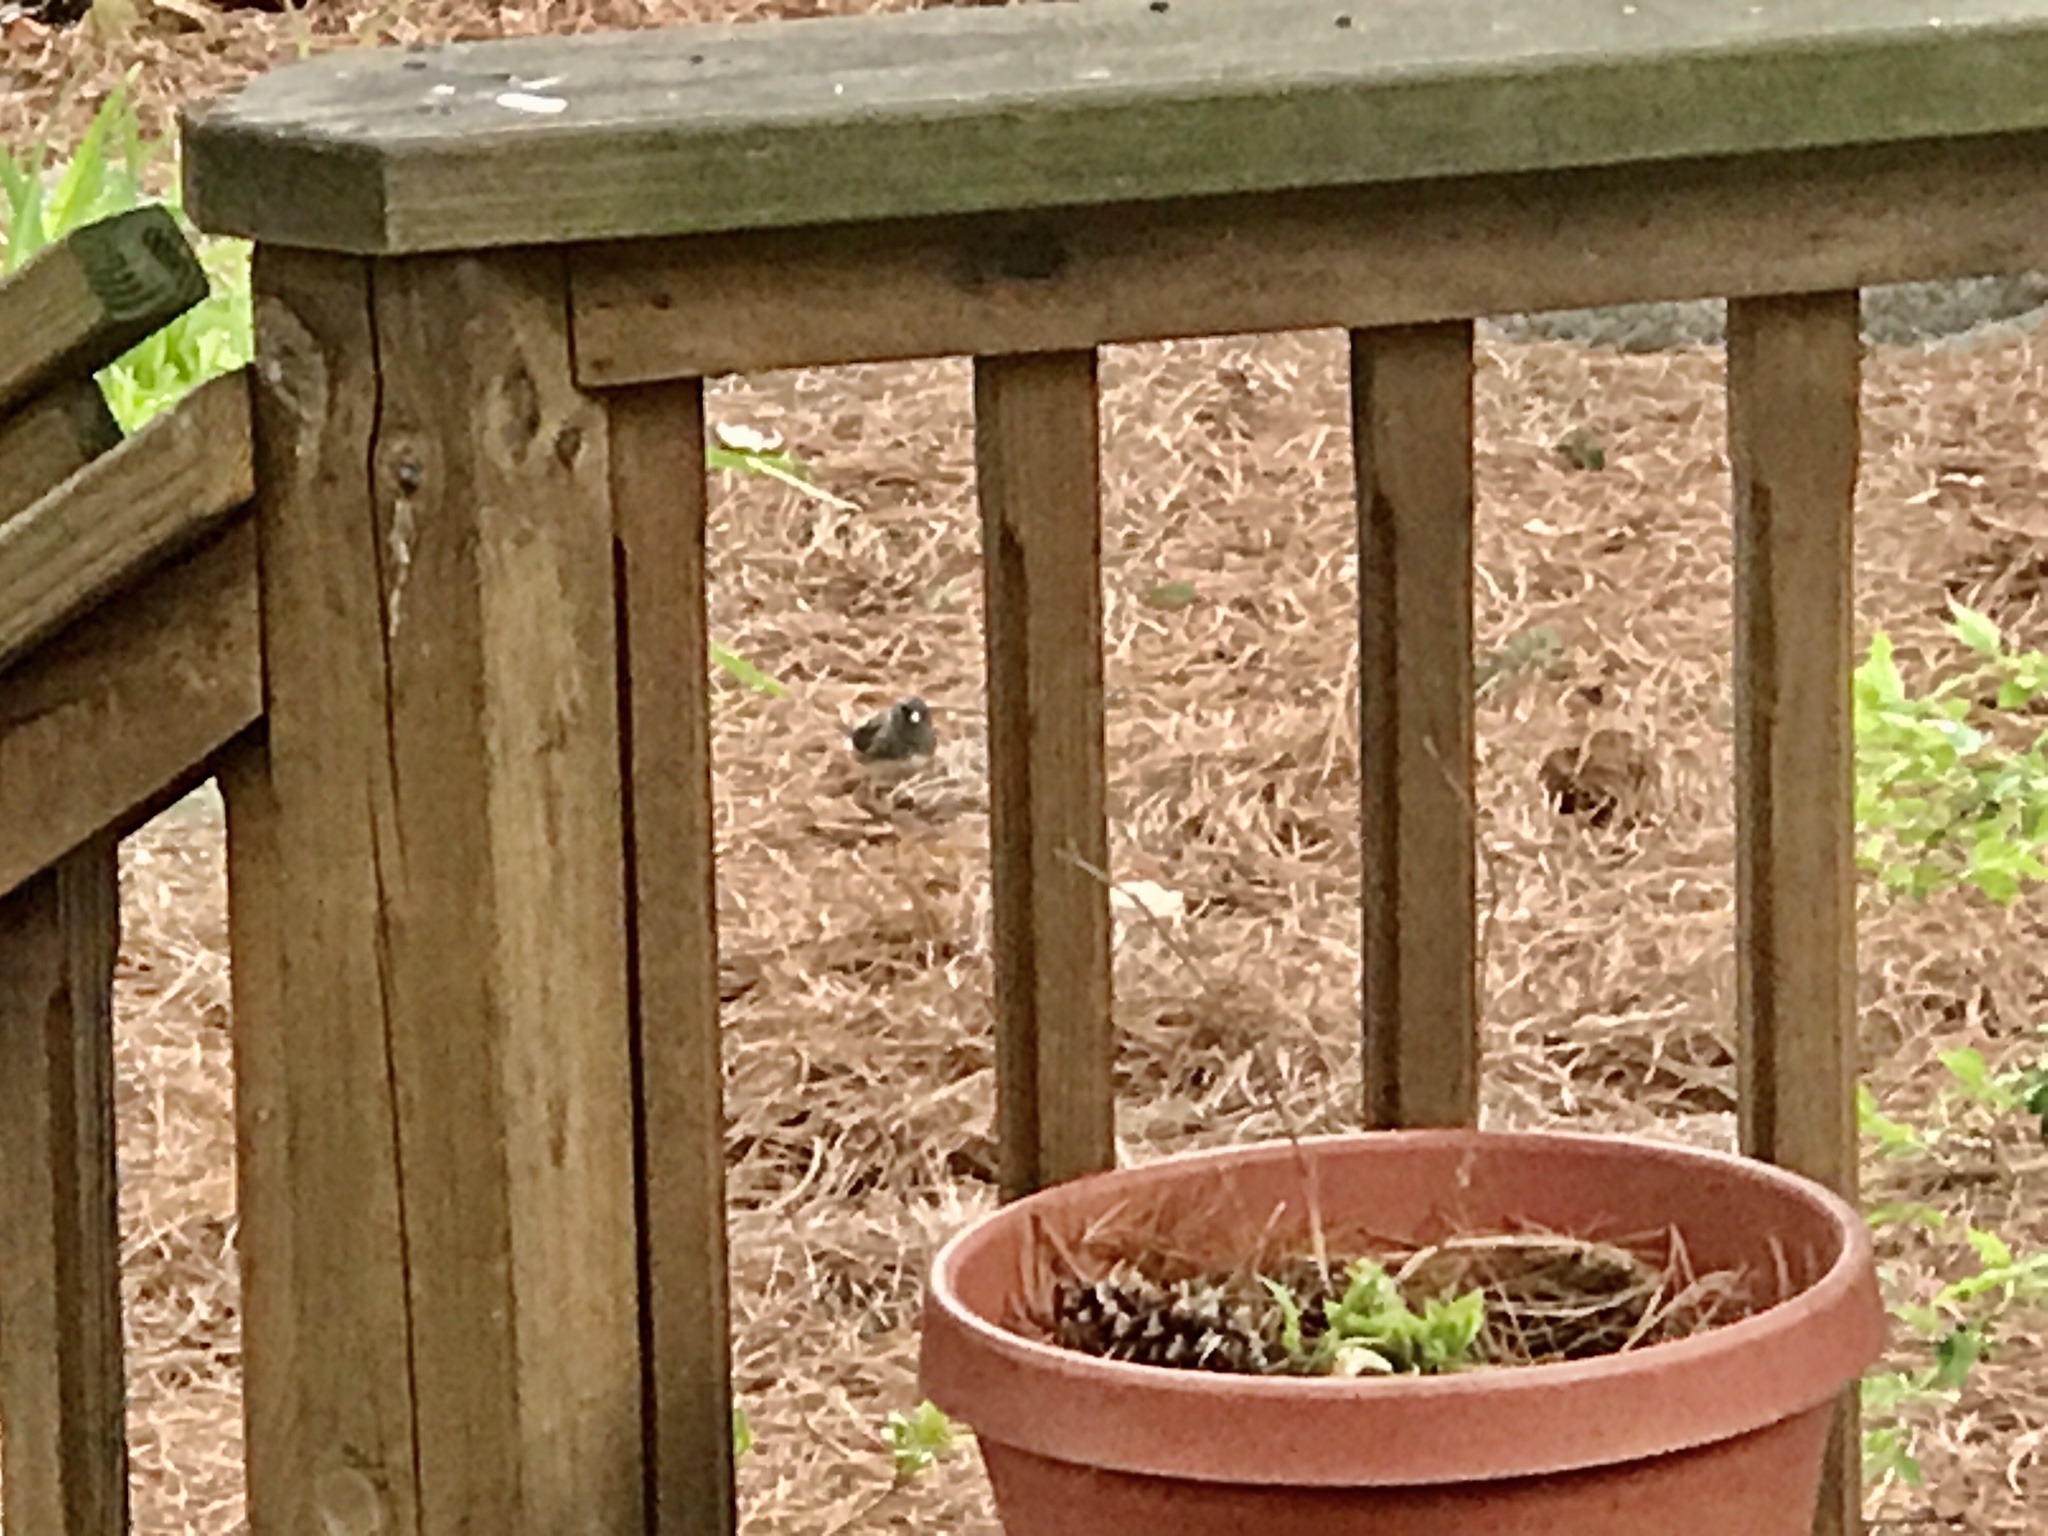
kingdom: Animalia
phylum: Chordata
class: Aves
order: Passeriformes
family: Passerellidae
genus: Junco
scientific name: Junco hyemalis
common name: Dark-eyed junco
